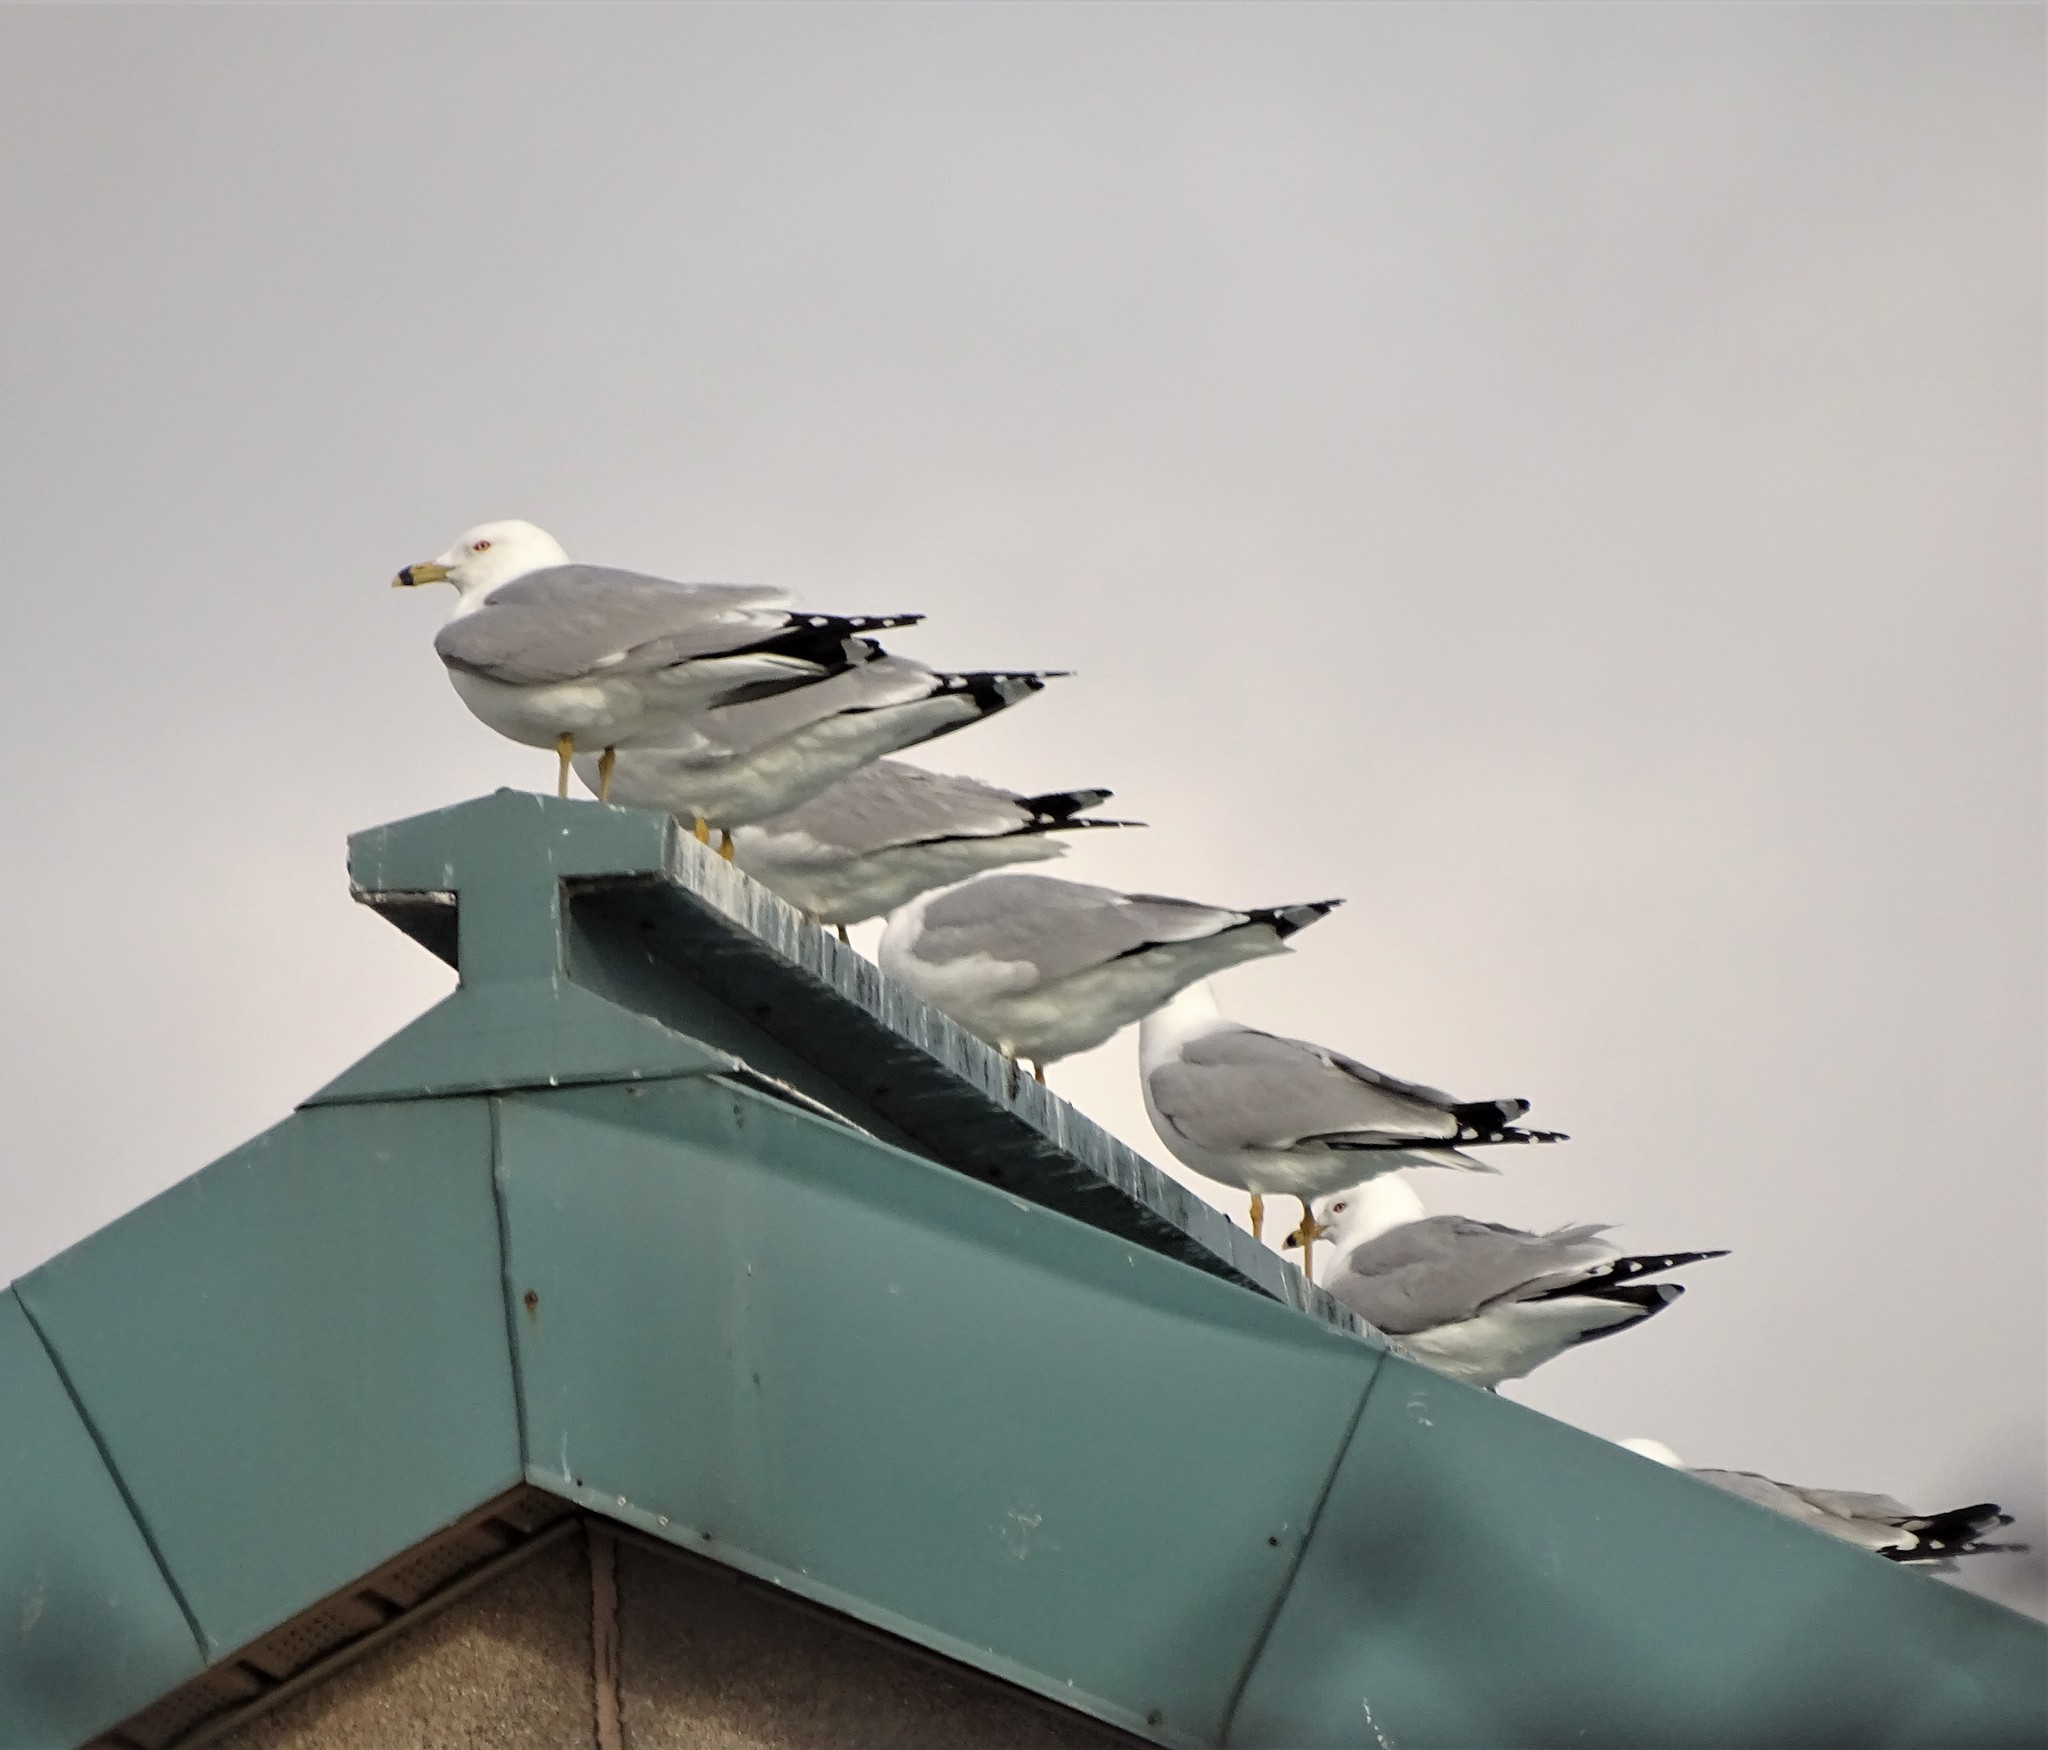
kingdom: Animalia
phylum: Chordata
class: Aves
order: Charadriiformes
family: Laridae
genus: Larus
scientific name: Larus delawarensis
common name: Ring-billed gull
